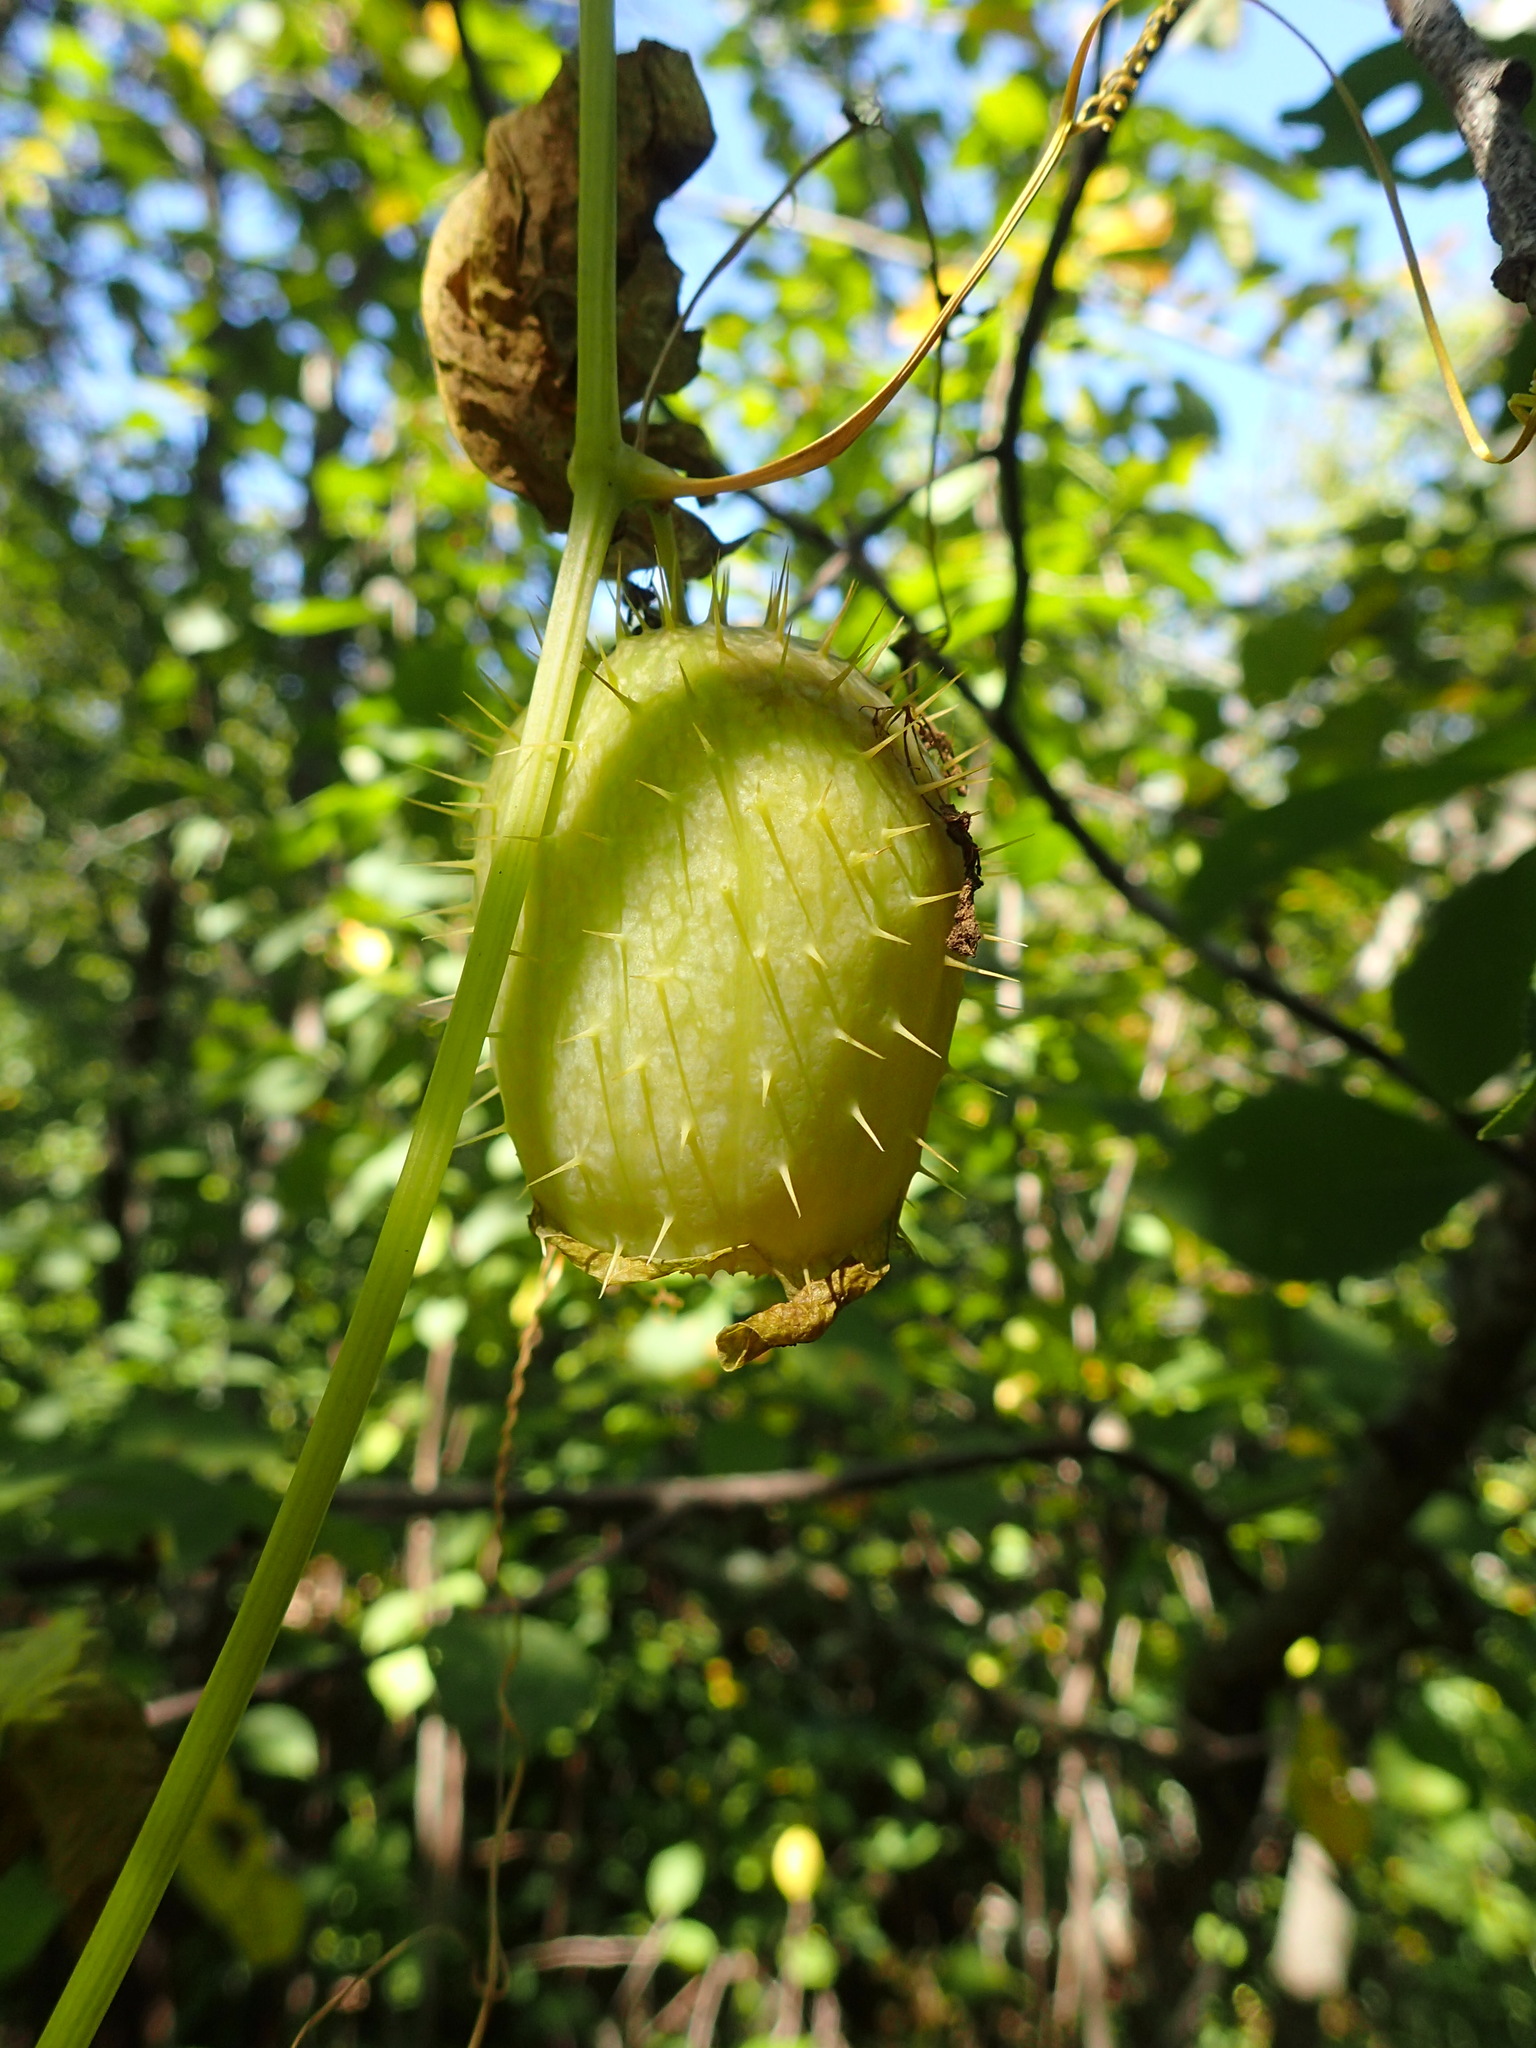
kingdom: Plantae
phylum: Tracheophyta
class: Magnoliopsida
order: Cucurbitales
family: Cucurbitaceae
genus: Echinocystis
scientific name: Echinocystis lobata
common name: Wild cucumber
